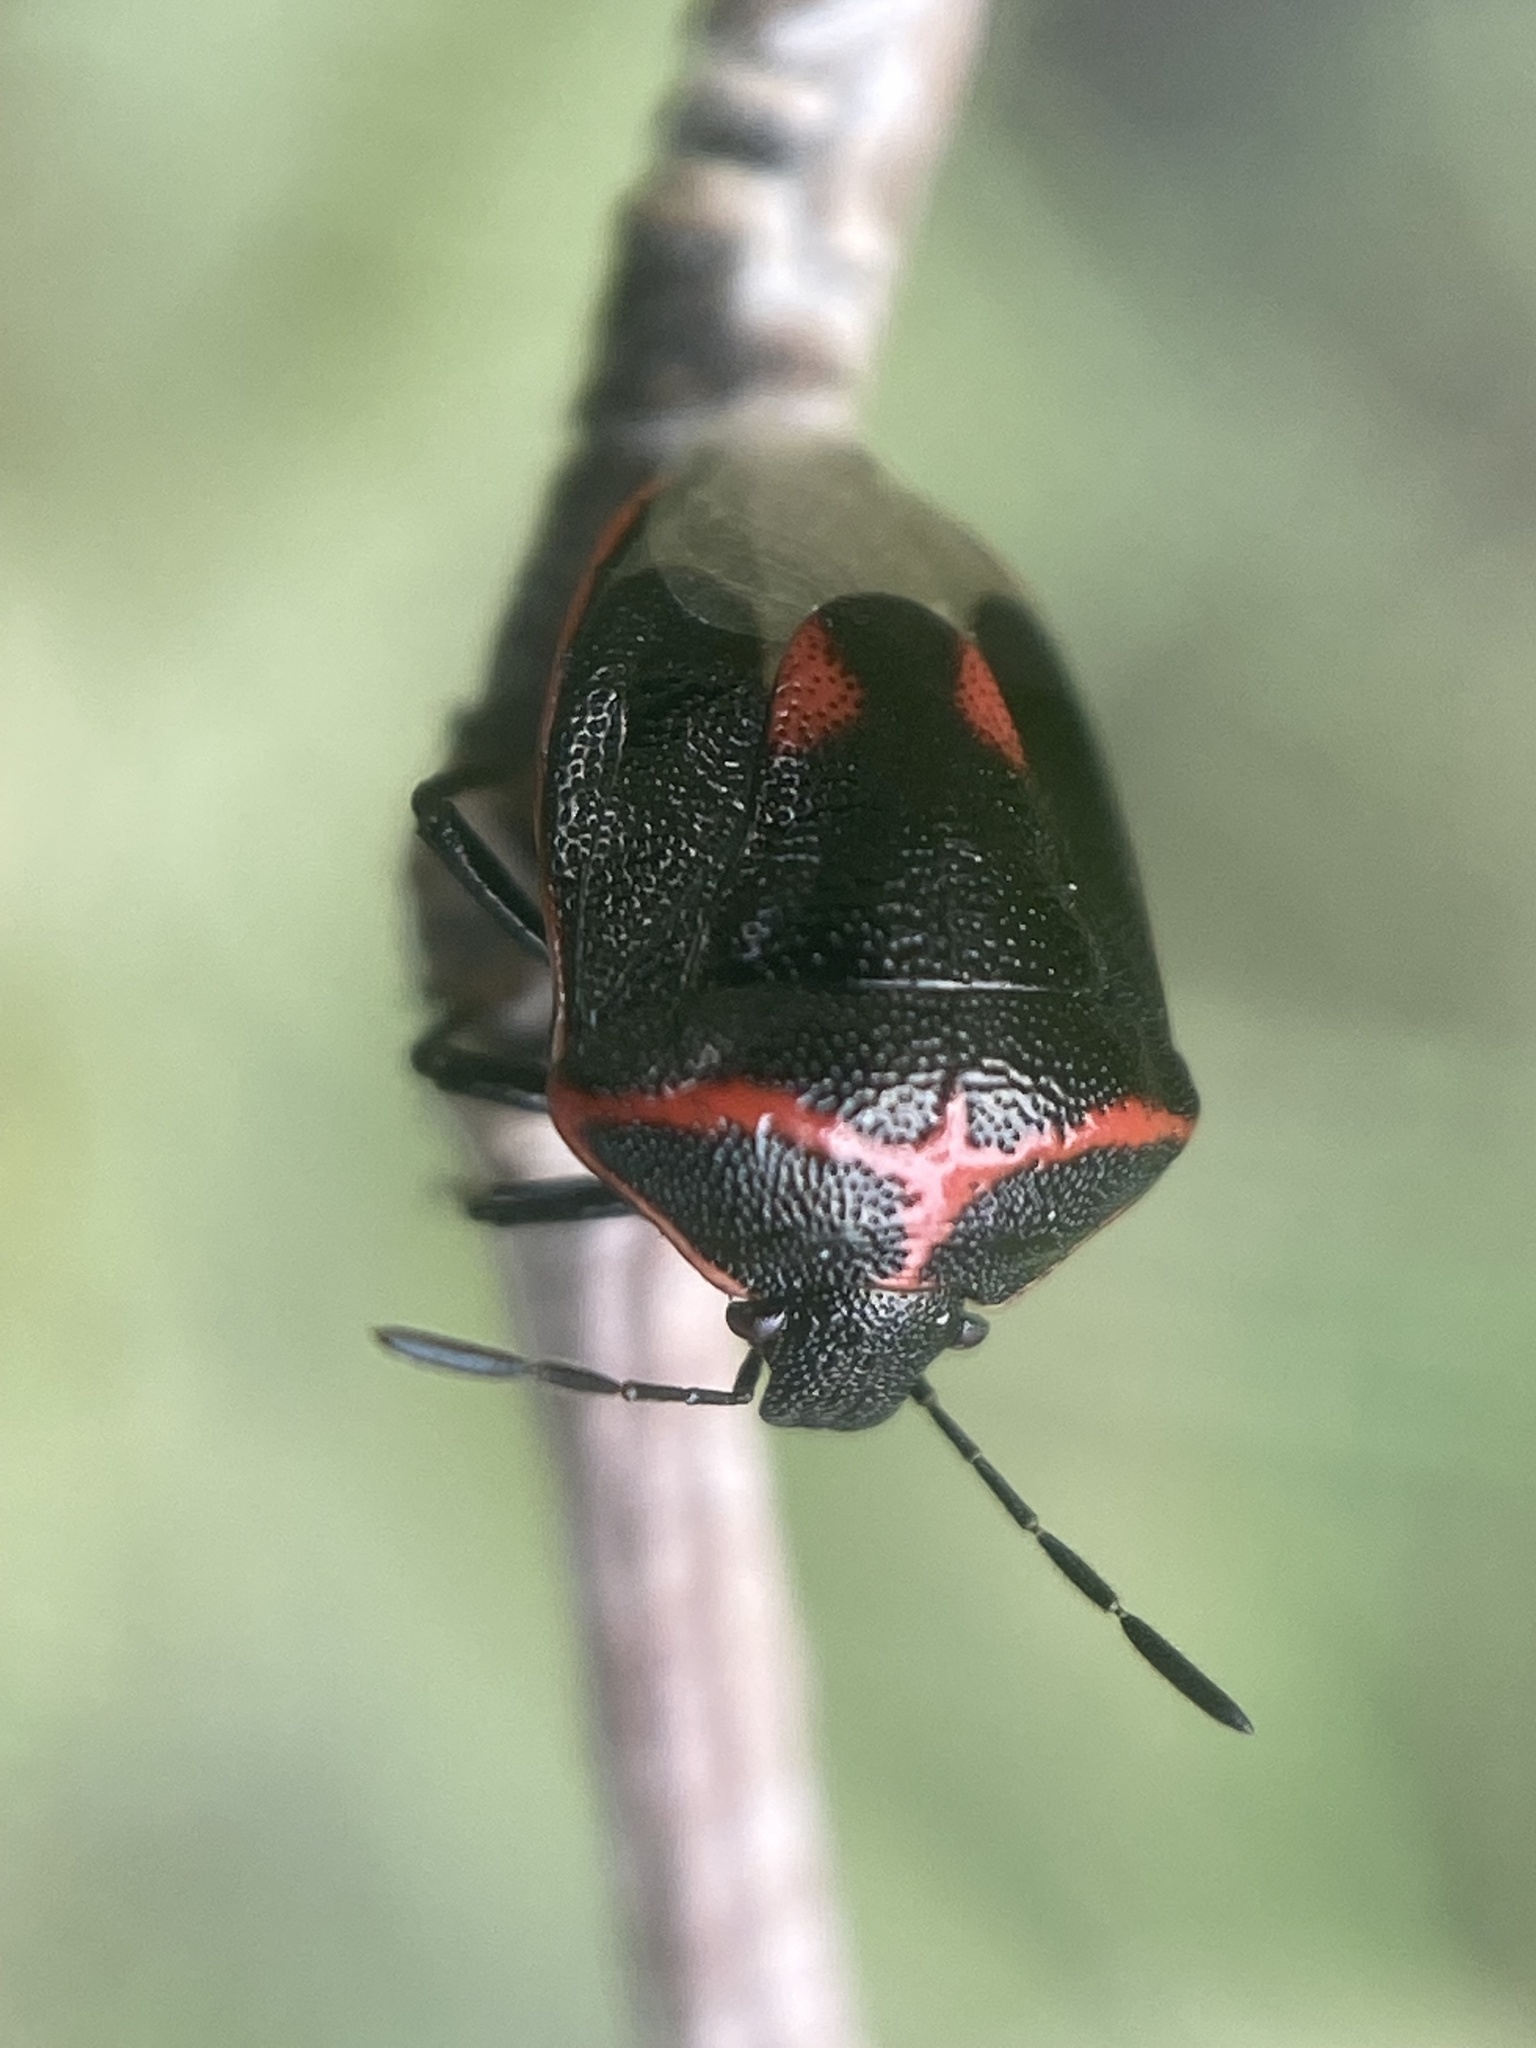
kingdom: Animalia
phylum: Arthropoda
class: Insecta
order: Hemiptera
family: Pentatomidae
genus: Cosmopepla
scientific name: Cosmopepla lintneriana
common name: Twice-stabbed stink bug
